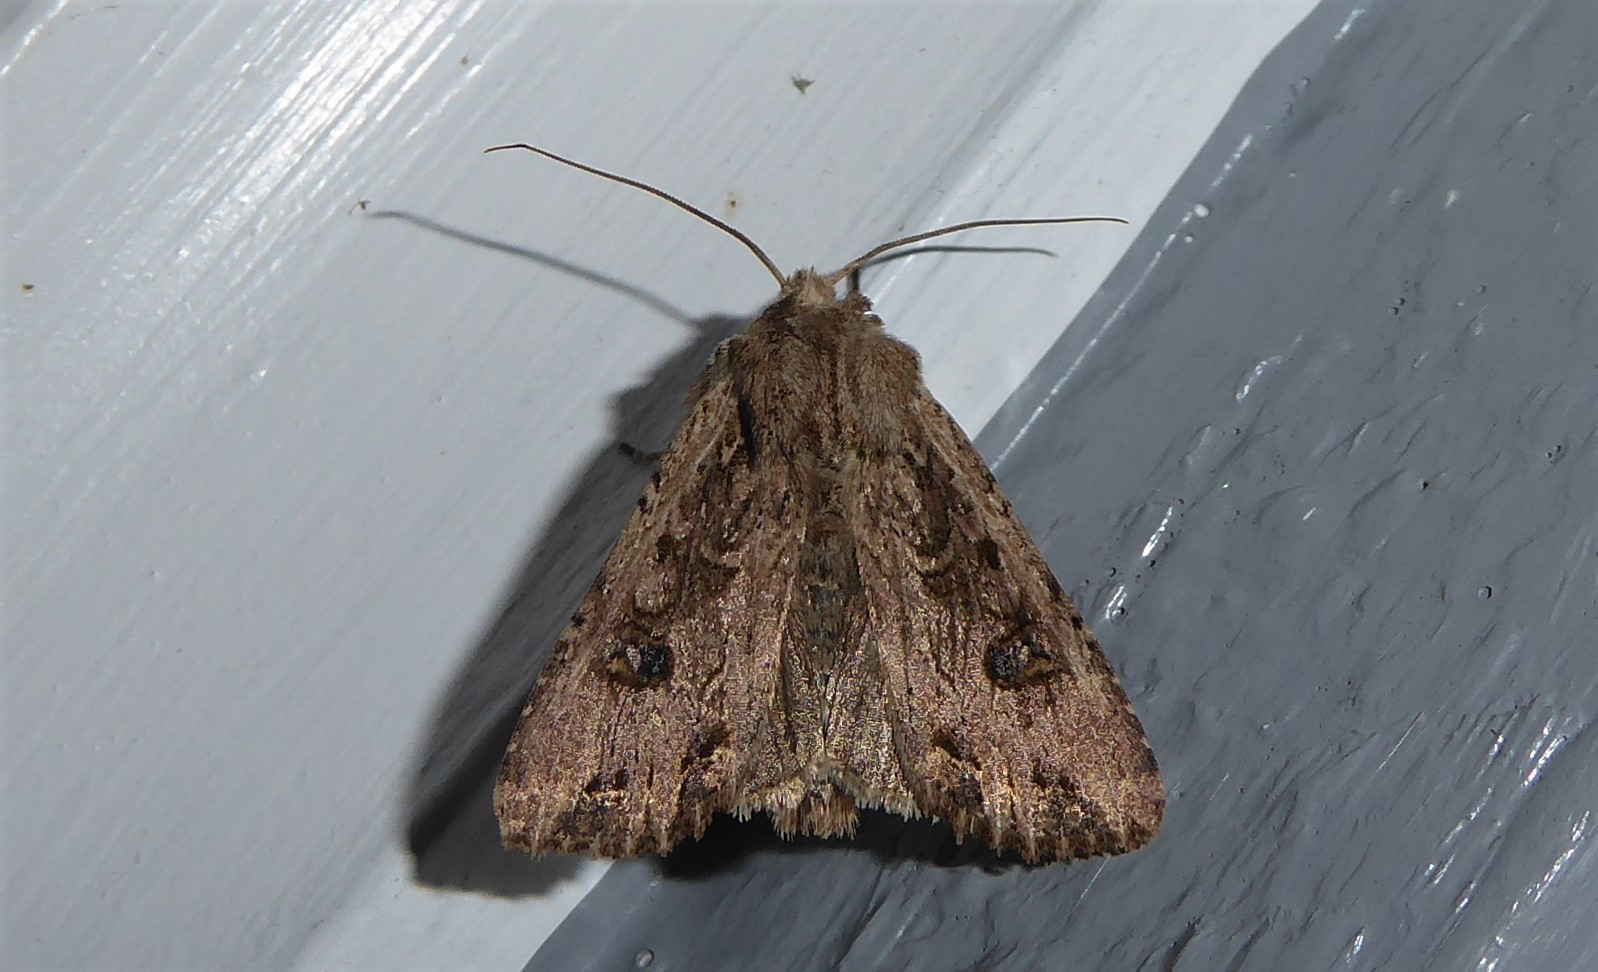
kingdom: Animalia
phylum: Arthropoda
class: Insecta
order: Lepidoptera
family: Noctuidae
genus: Ichneutica
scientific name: Ichneutica lignana
